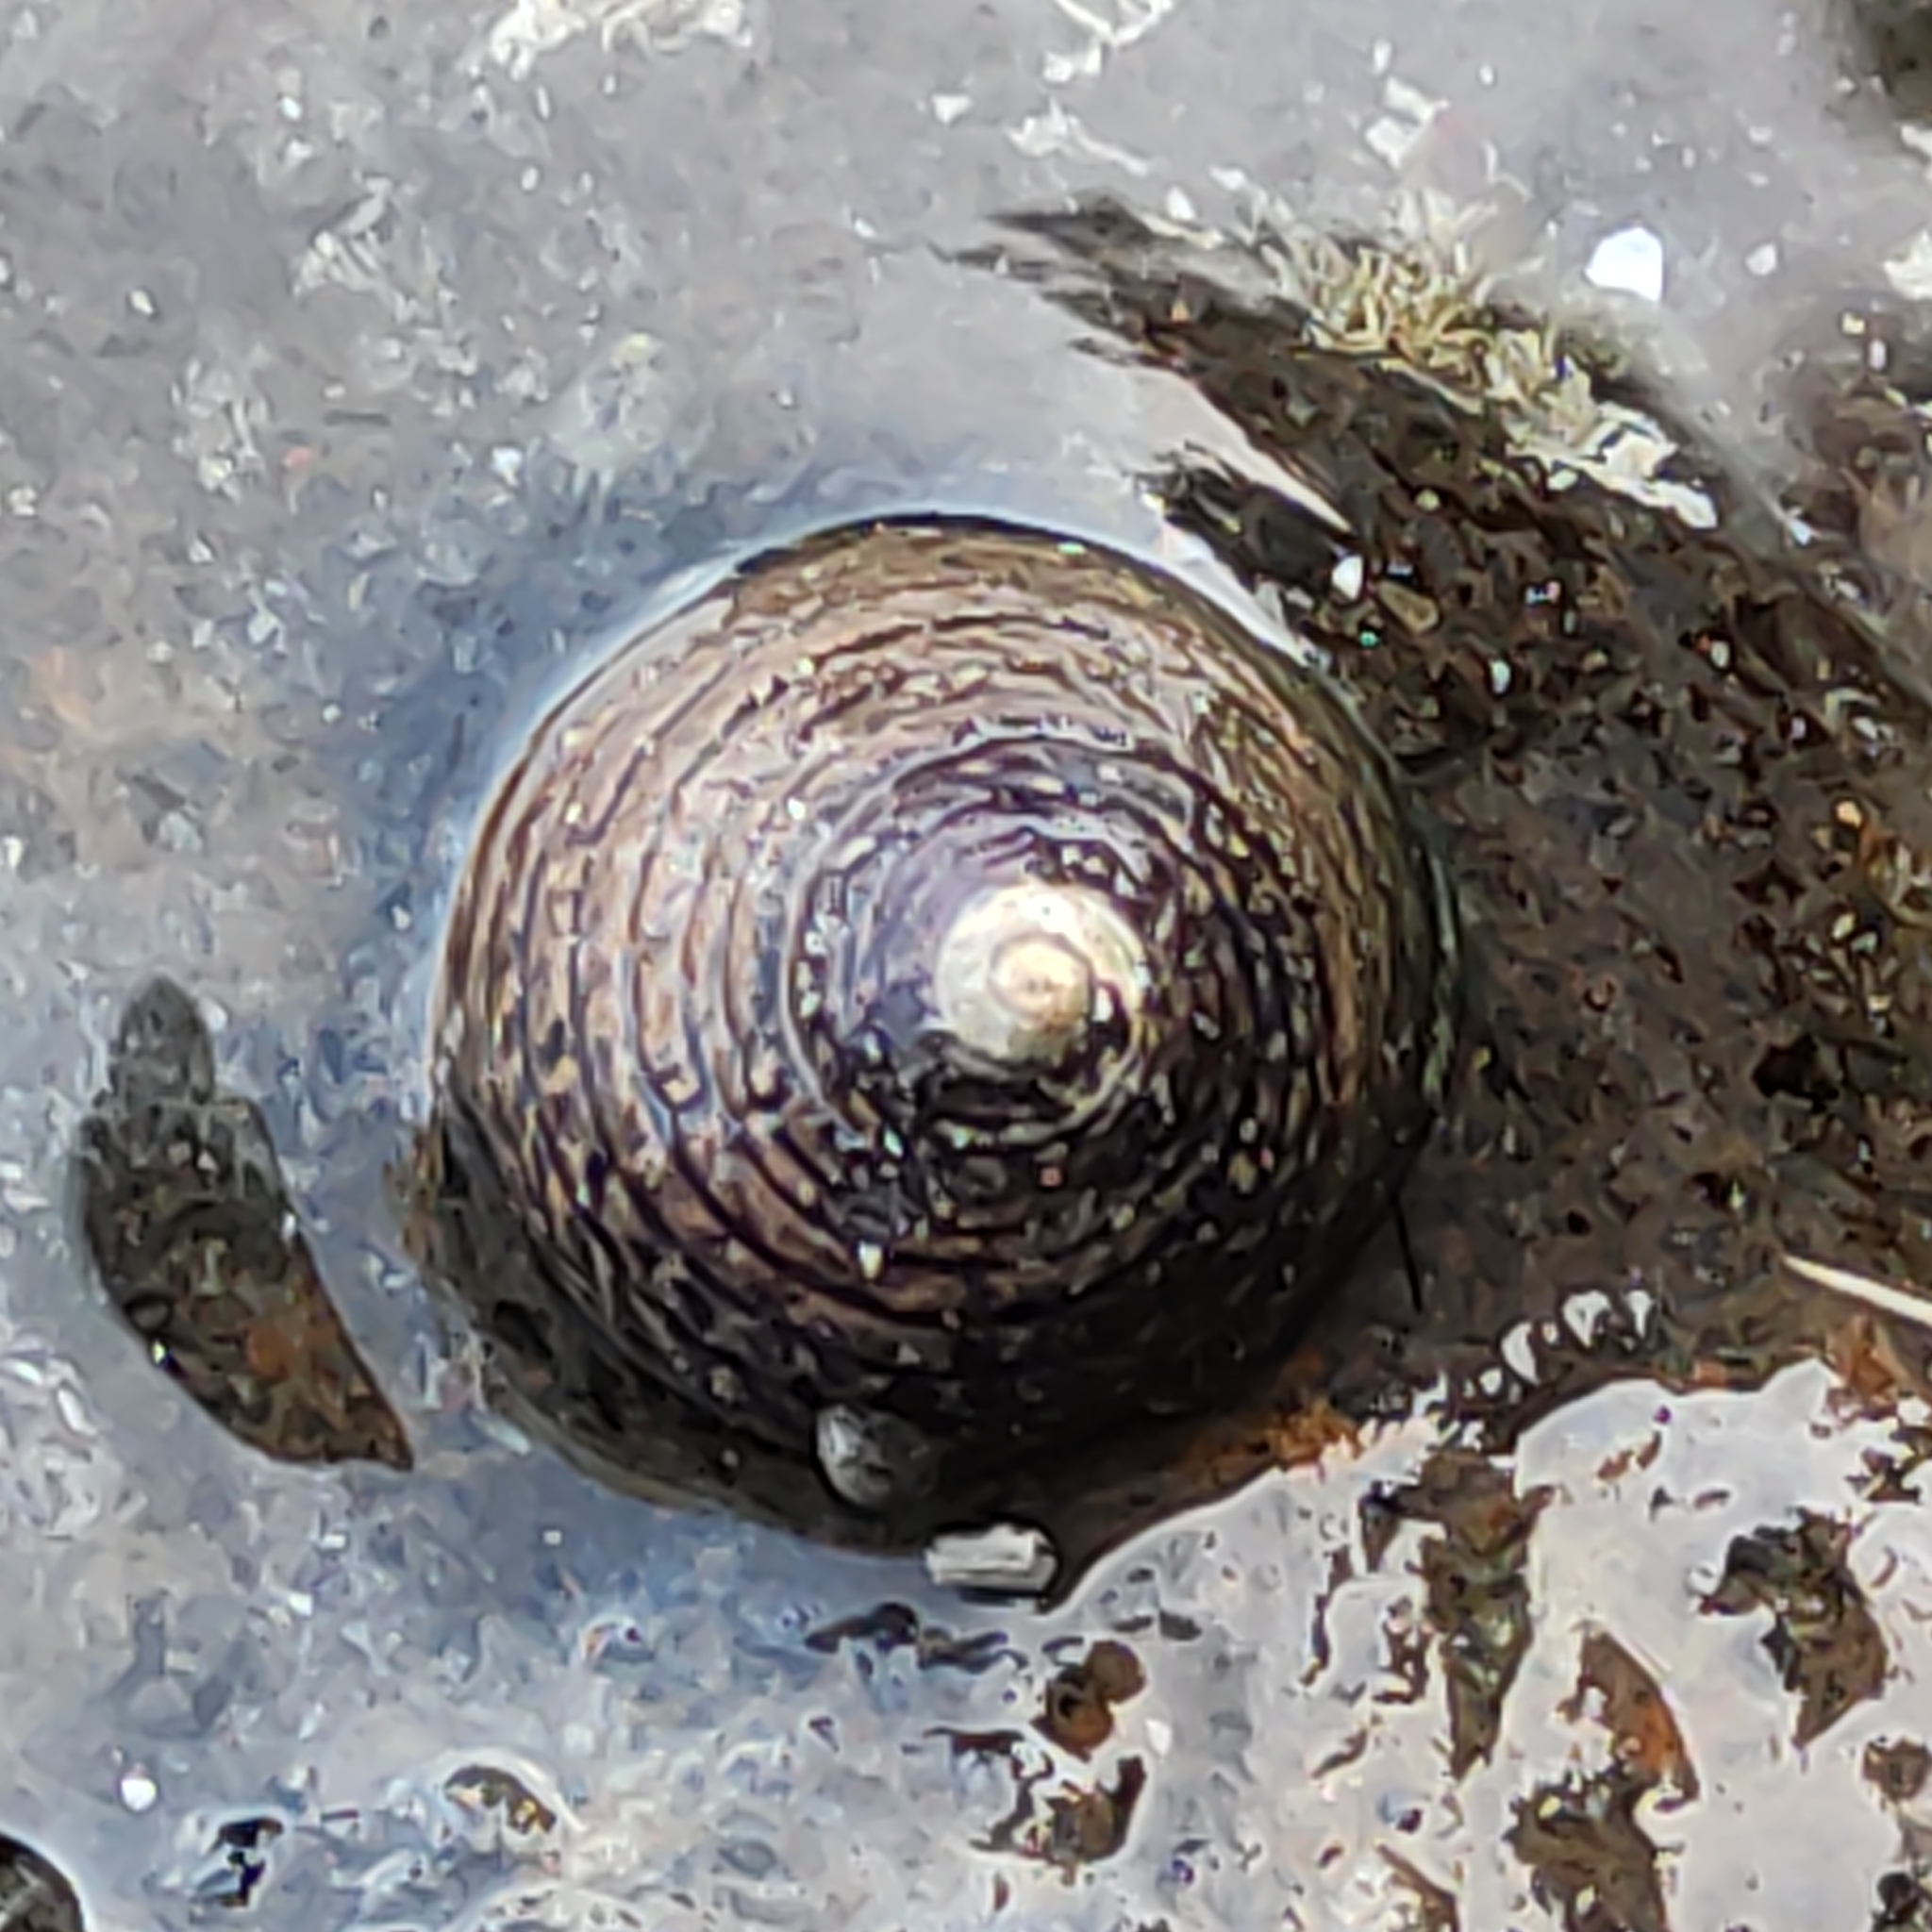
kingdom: Animalia
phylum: Mollusca
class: Gastropoda
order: Trochida
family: Trochidae
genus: Diloma
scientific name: Diloma aethiops
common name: Scorched monodont
